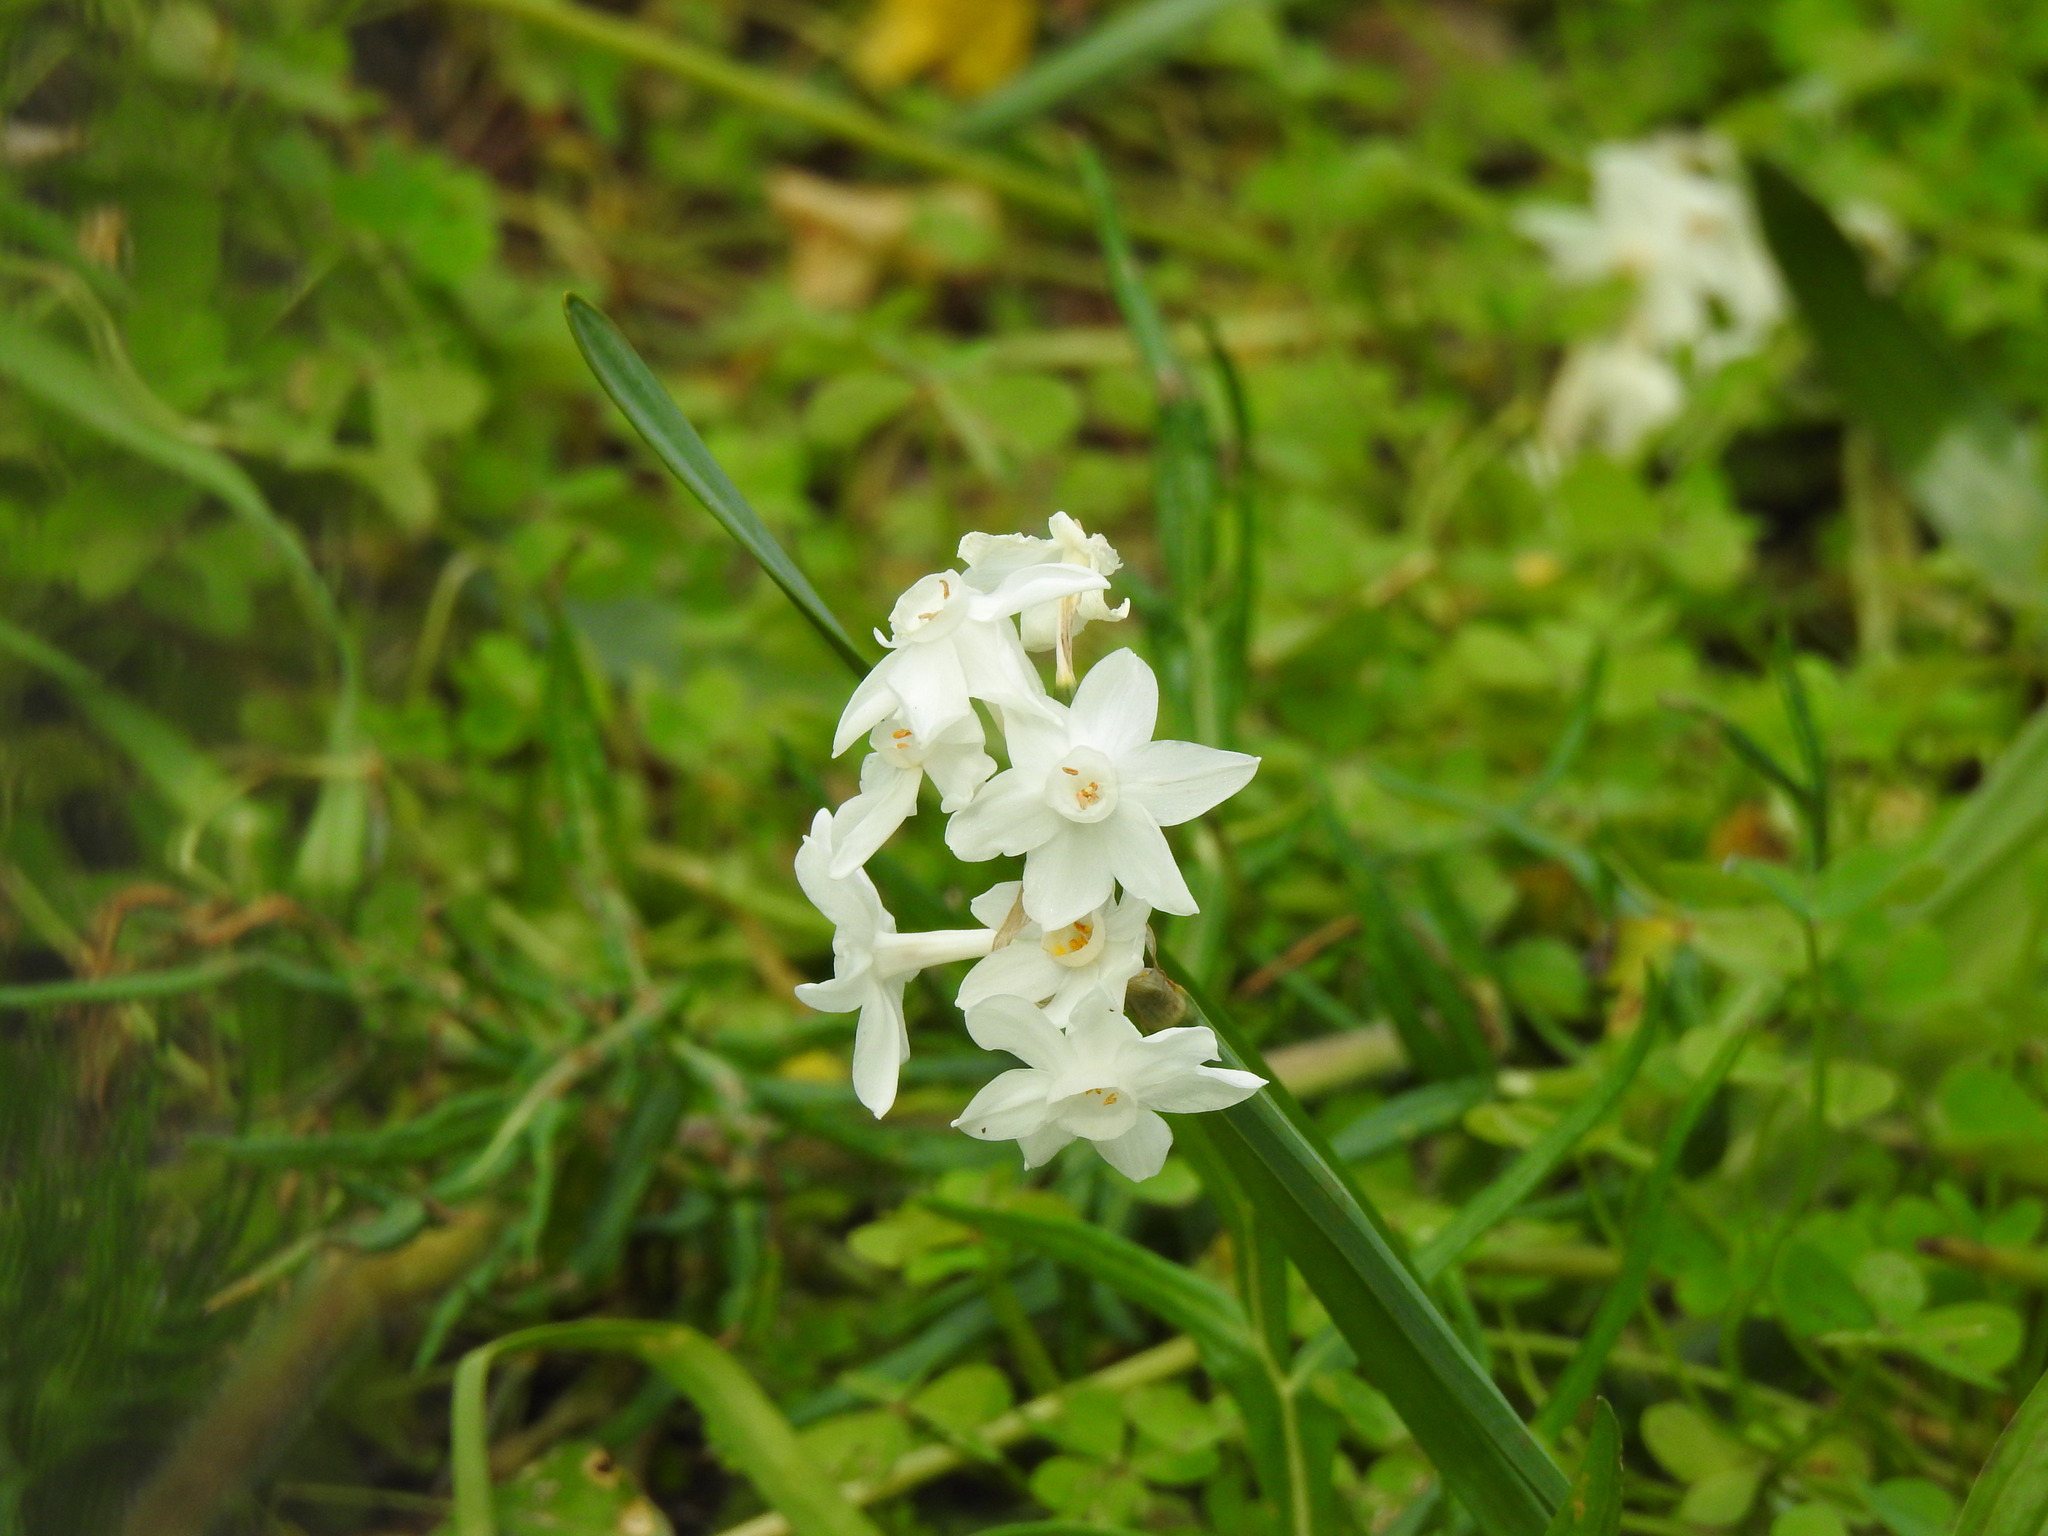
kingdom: Plantae
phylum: Tracheophyta
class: Liliopsida
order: Asparagales
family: Amaryllidaceae
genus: Narcissus
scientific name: Narcissus papyraceus
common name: Paper-white daffodil
